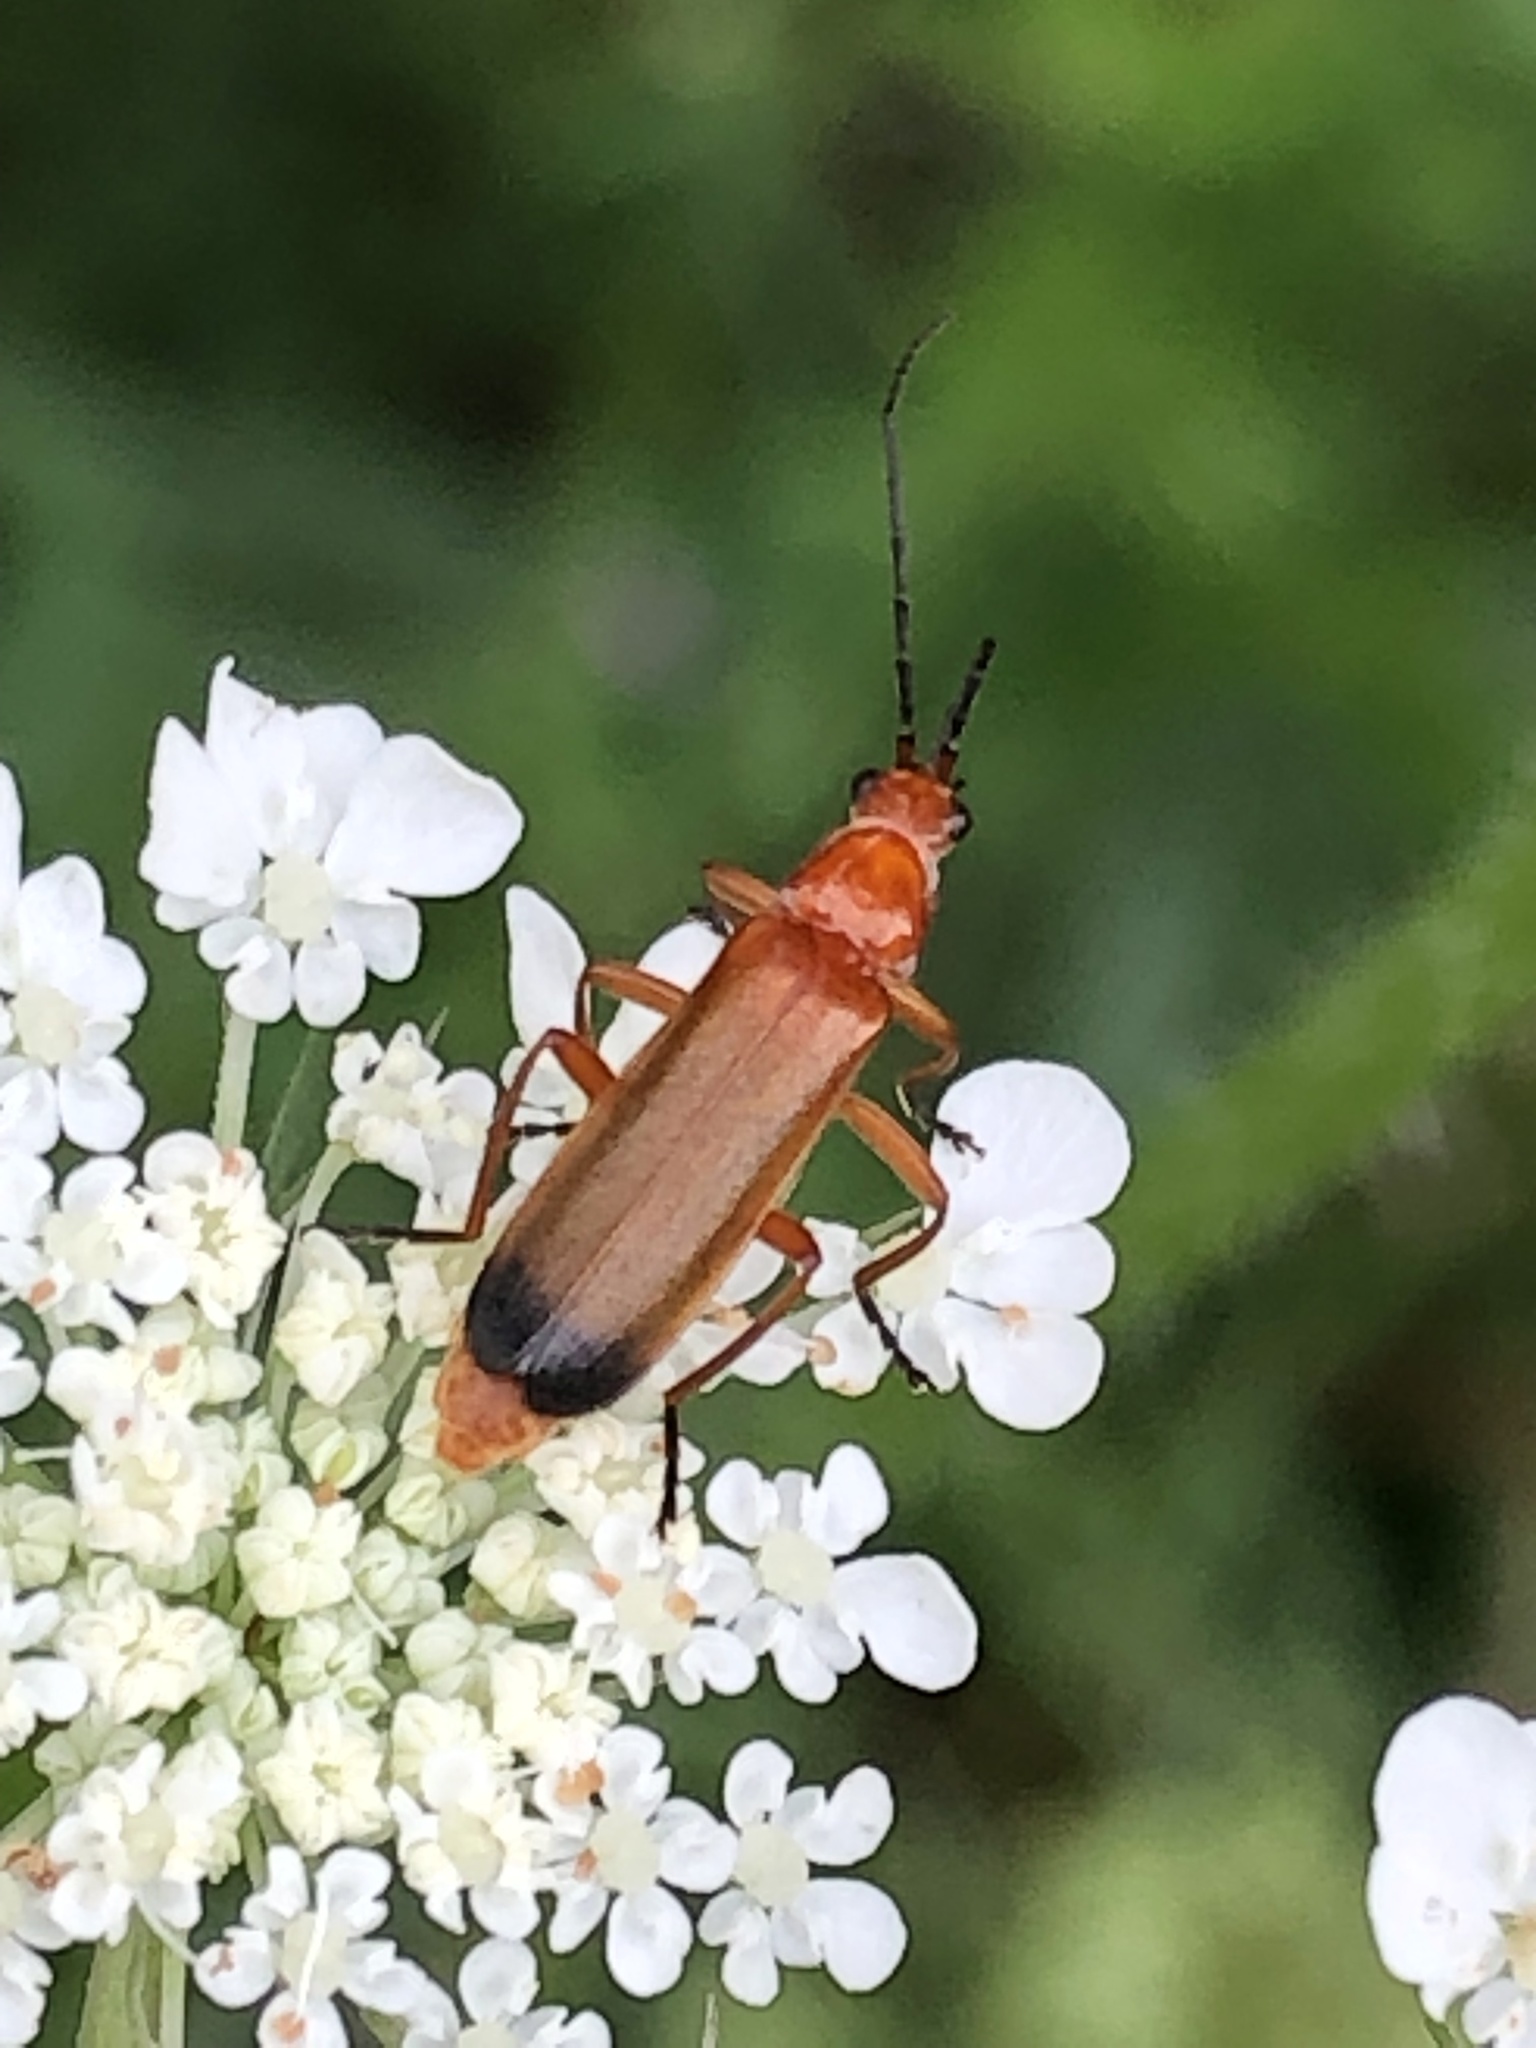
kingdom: Animalia
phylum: Arthropoda
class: Insecta
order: Coleoptera
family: Cantharidae
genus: Rhagonycha
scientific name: Rhagonycha fulva
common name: Common red soldier beetle
